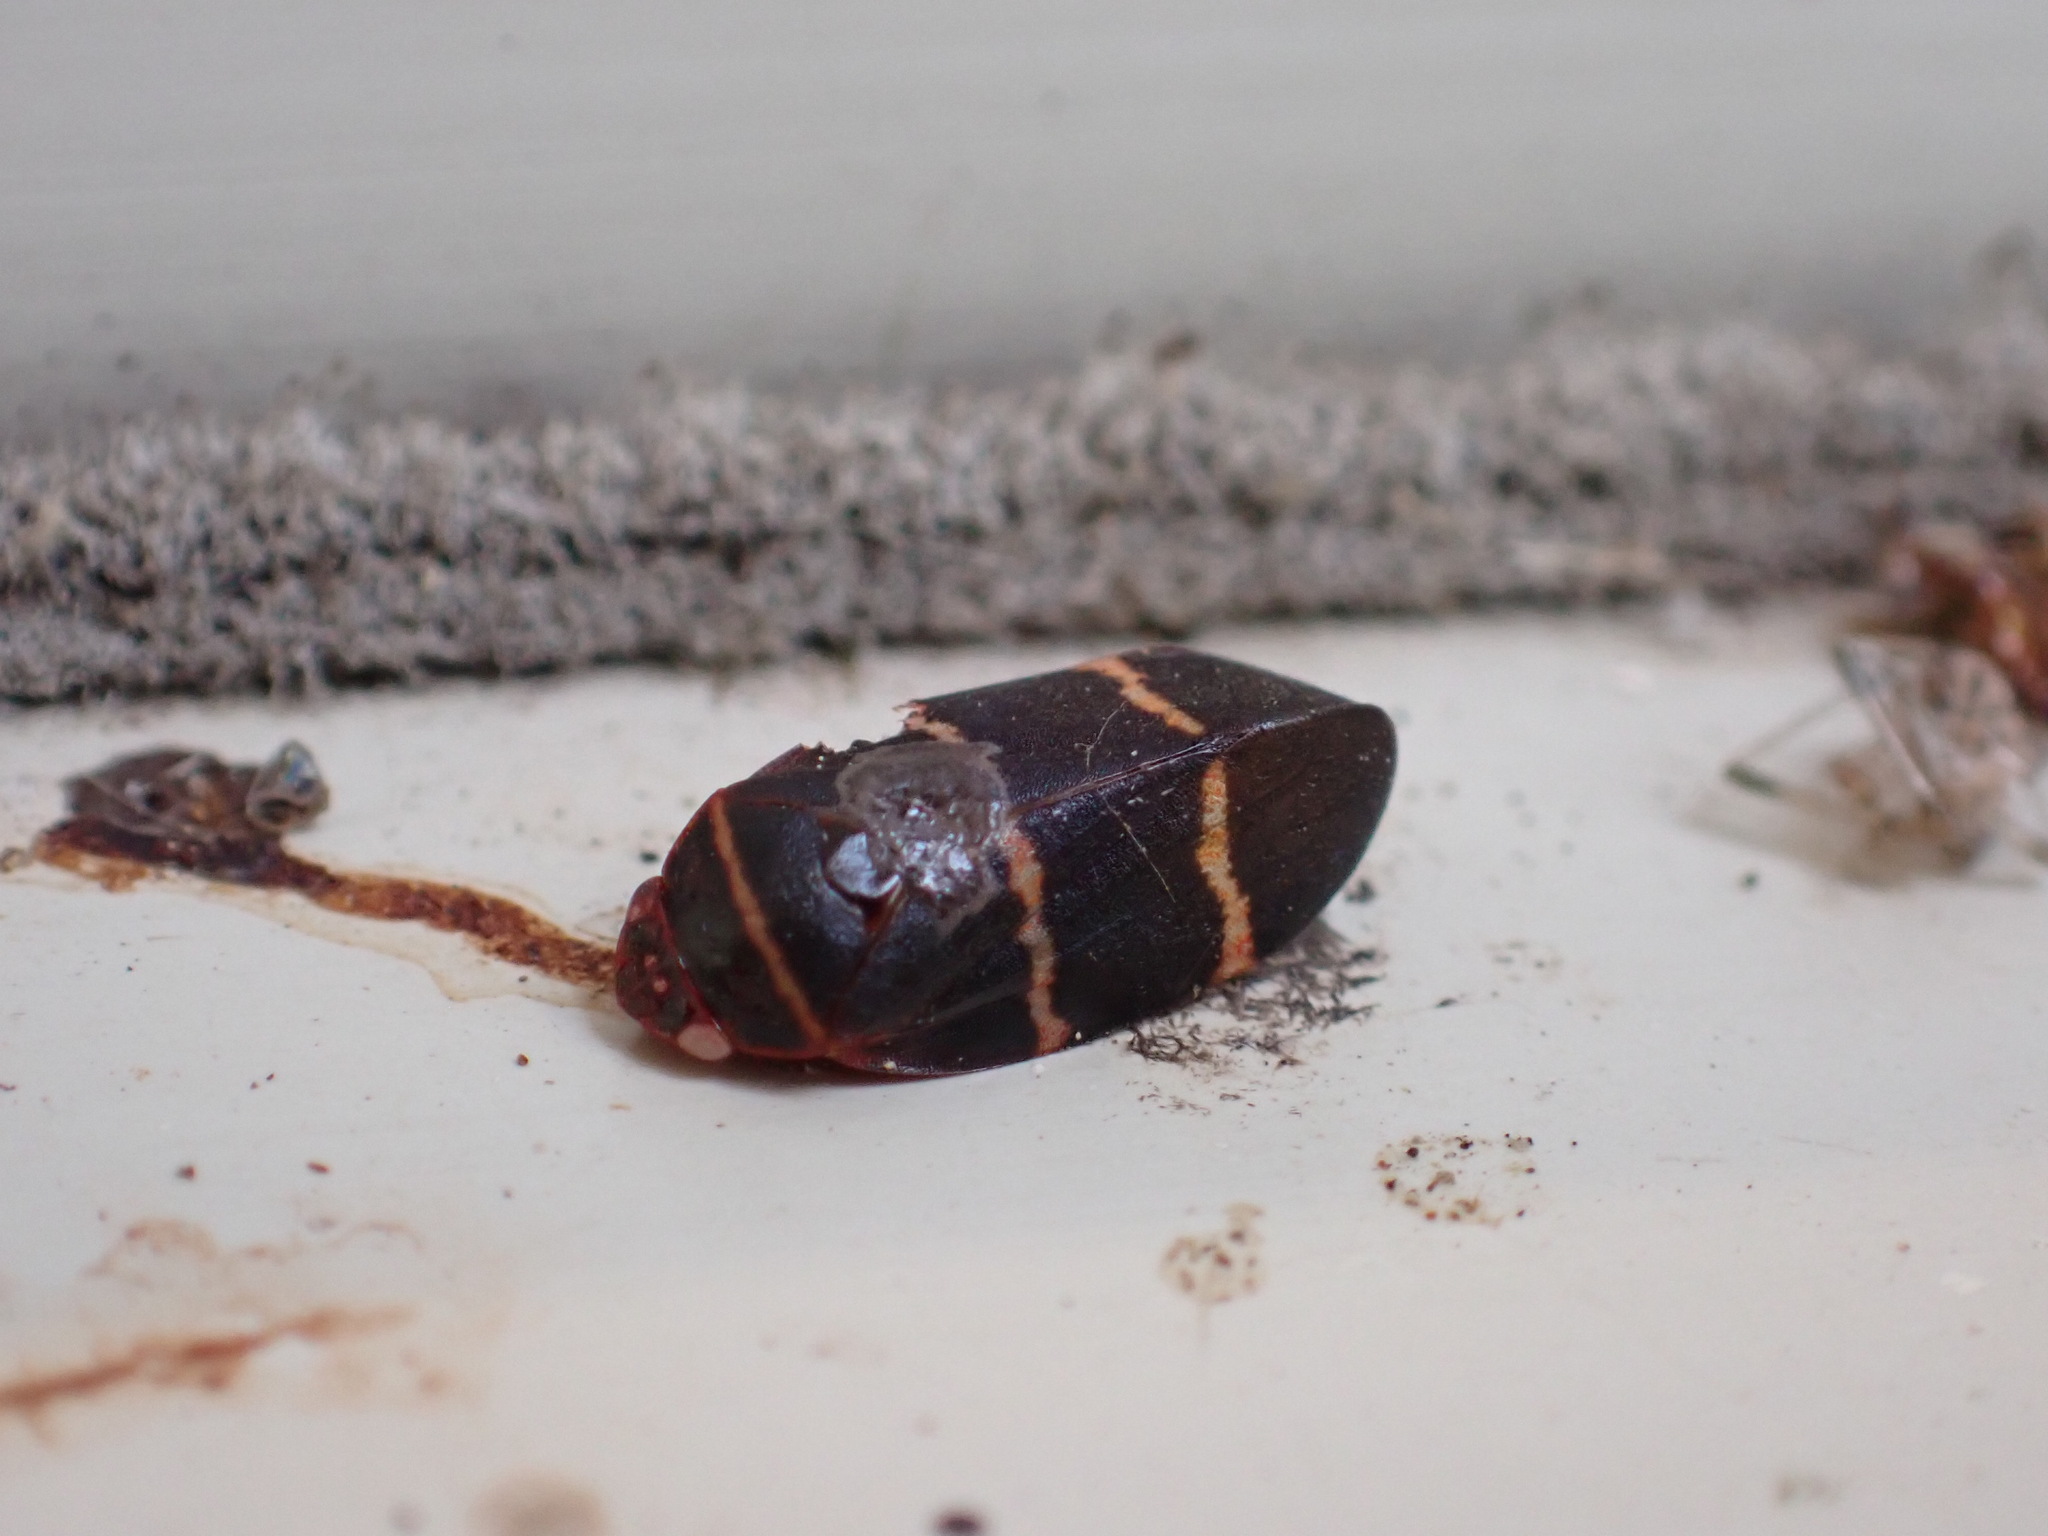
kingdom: Animalia
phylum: Arthropoda
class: Insecta
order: Hemiptera
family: Cercopidae
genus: Prosapia
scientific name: Prosapia bicincta
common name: Twolined spittlebug
